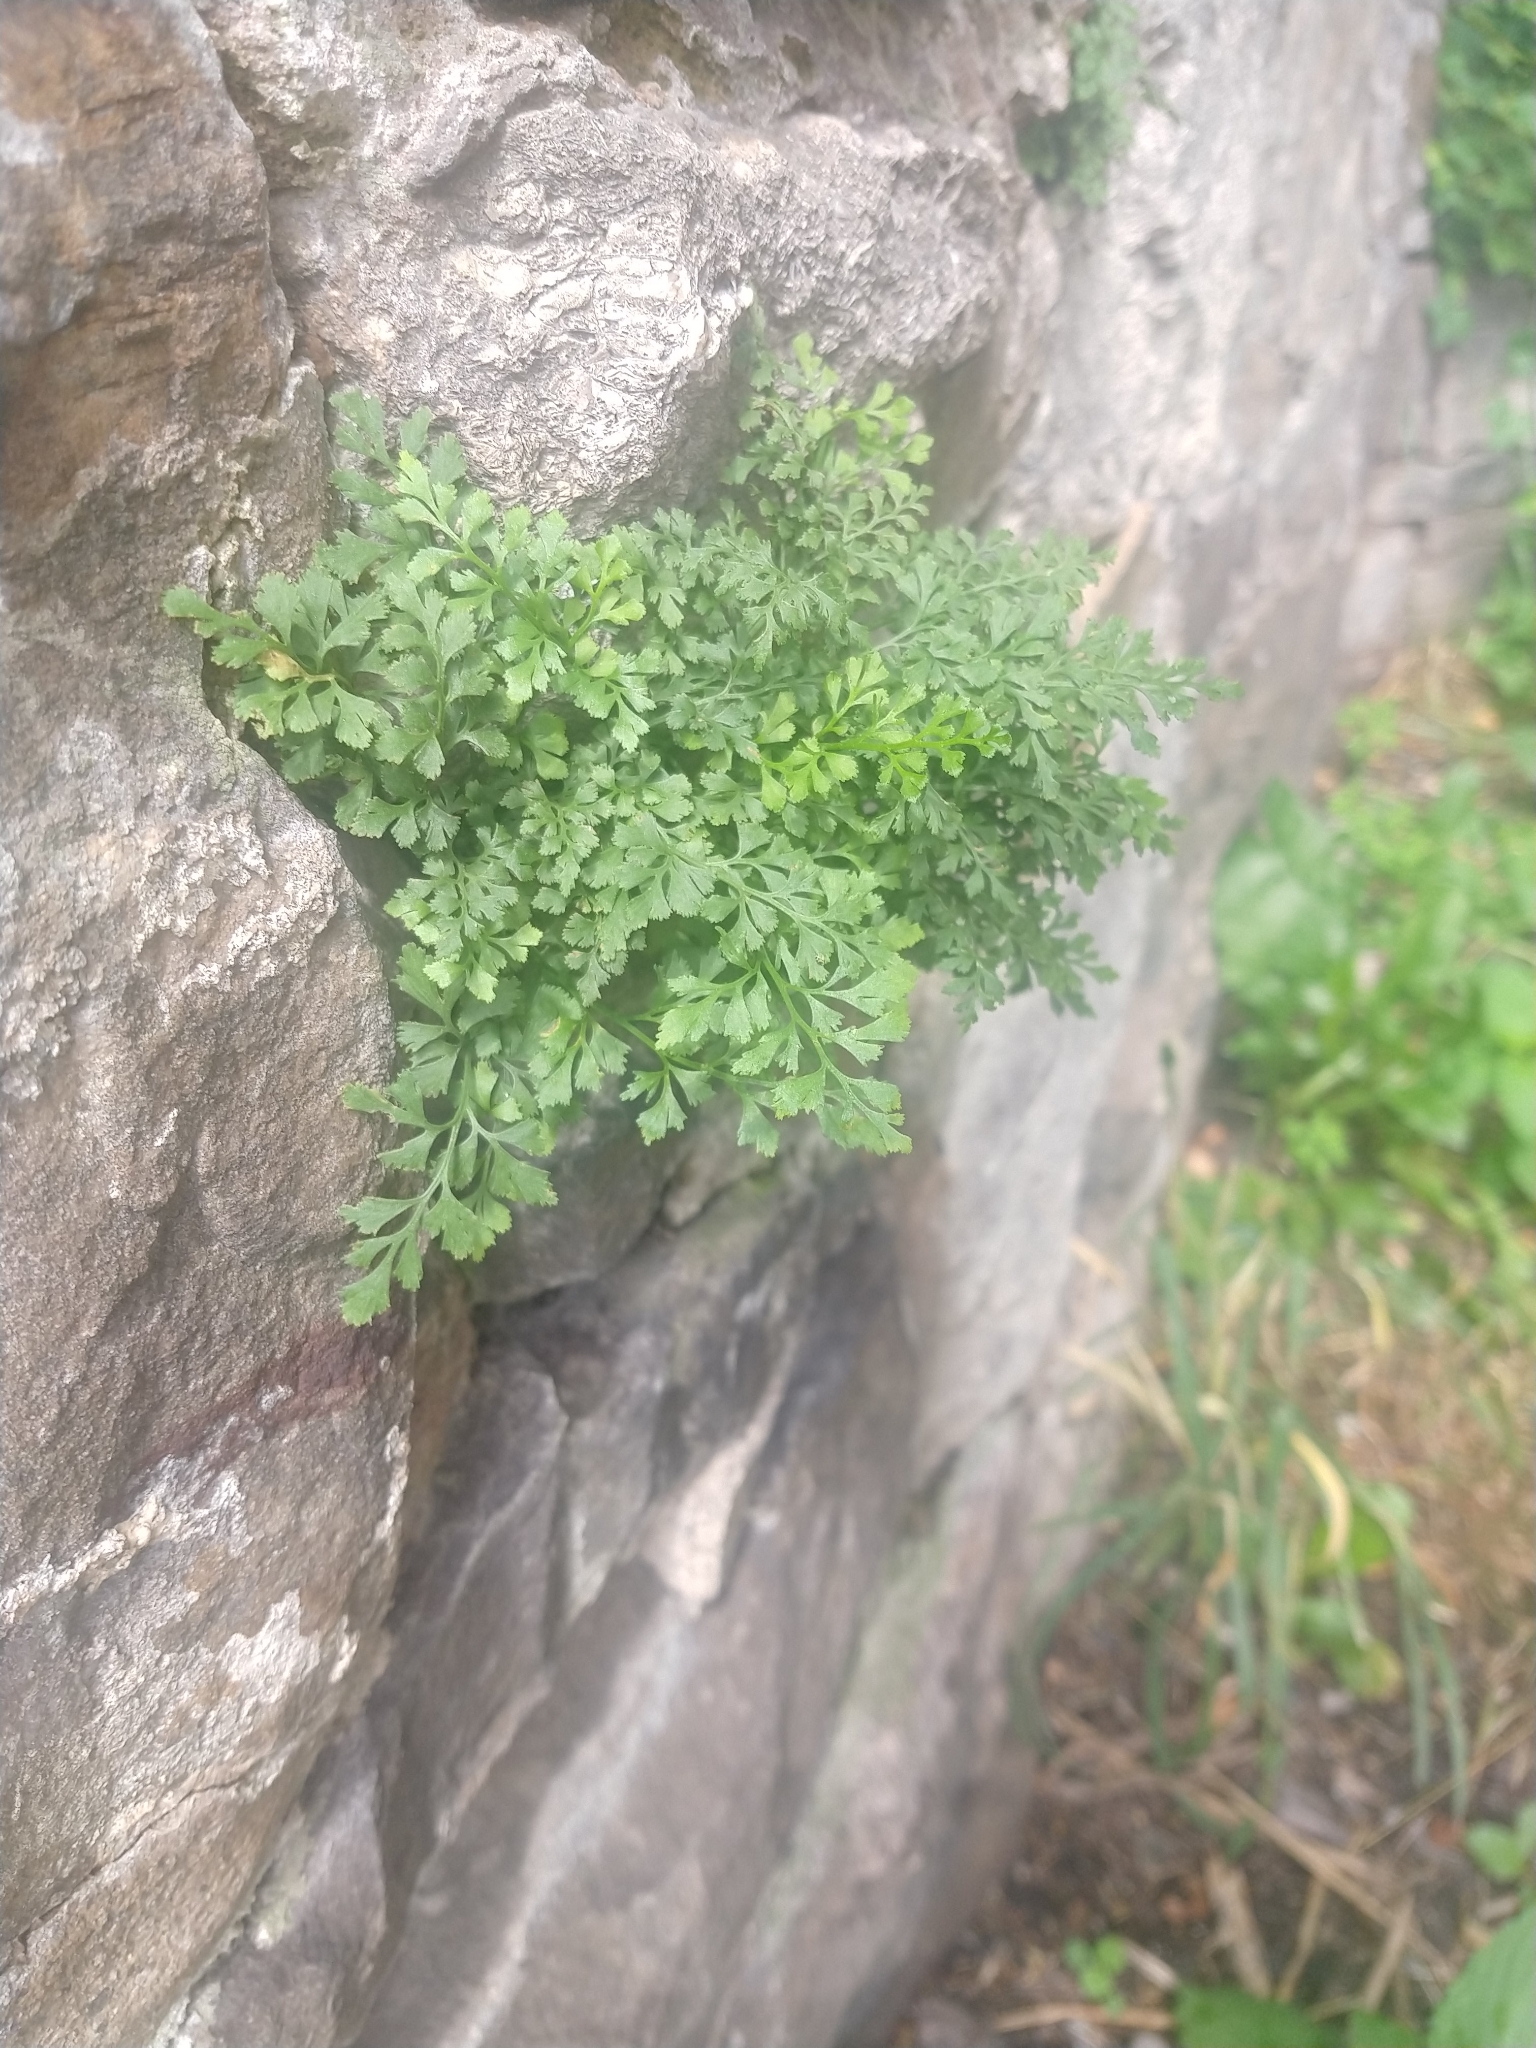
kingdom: Plantae
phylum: Tracheophyta
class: Polypodiopsida
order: Polypodiales
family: Aspleniaceae
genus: Asplenium
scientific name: Asplenium ruta-muraria
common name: Wall-rue
